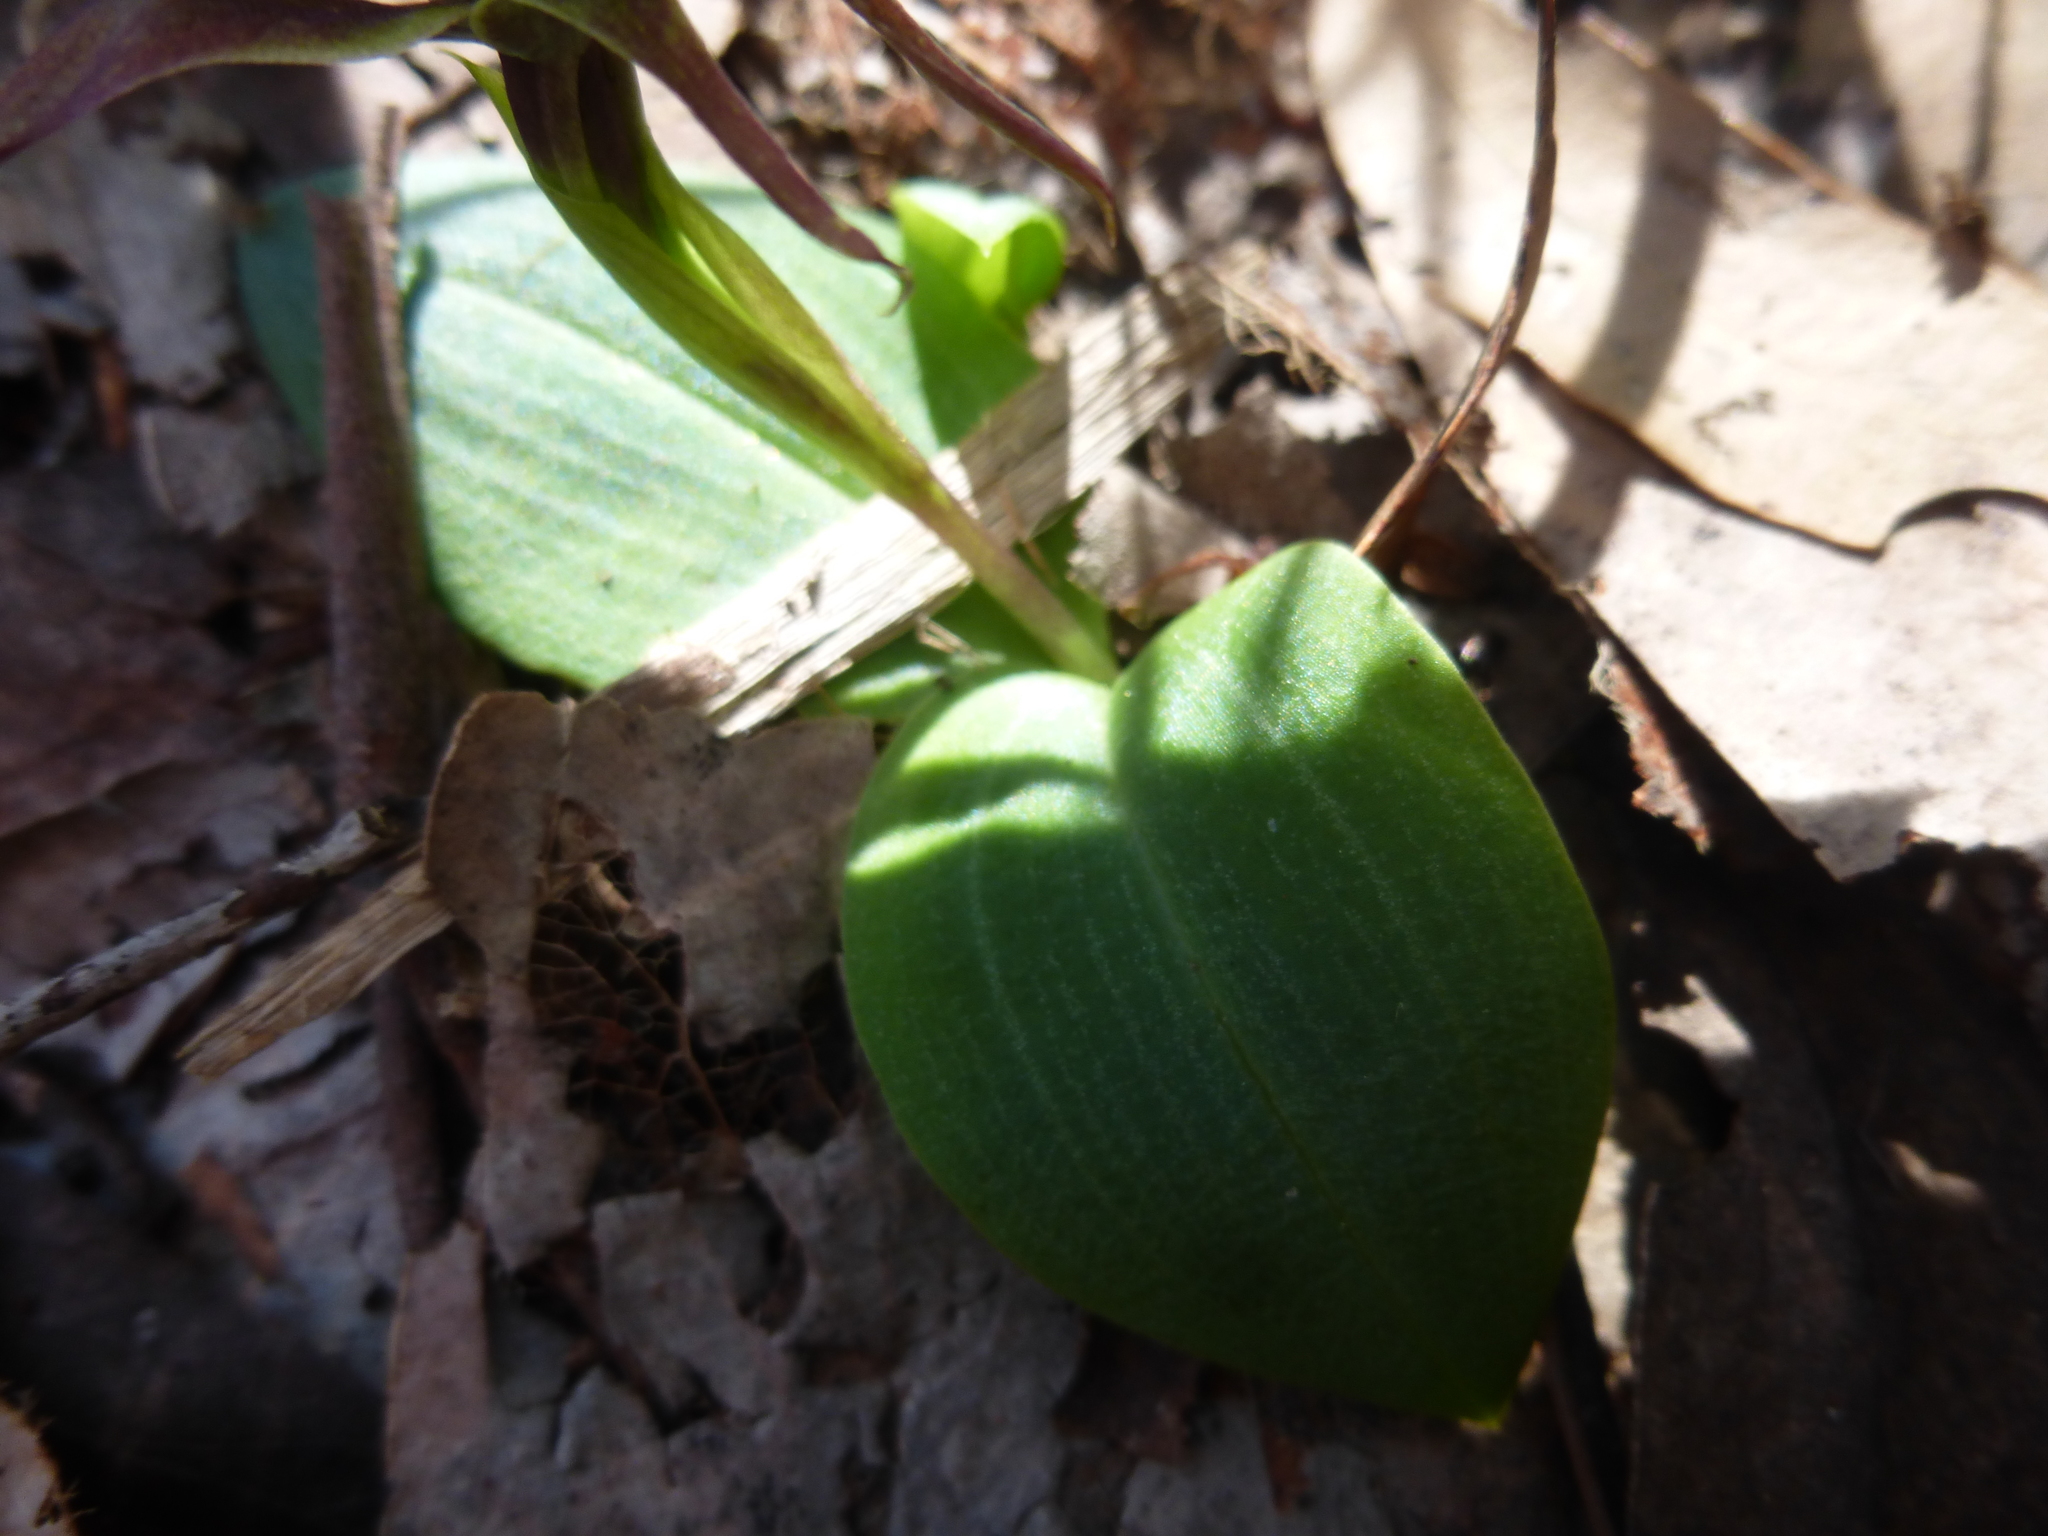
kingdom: Plantae
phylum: Tracheophyta
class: Liliopsida
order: Asparagales
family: Orchidaceae
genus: Chiloglottis
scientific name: Chiloglottis valida
